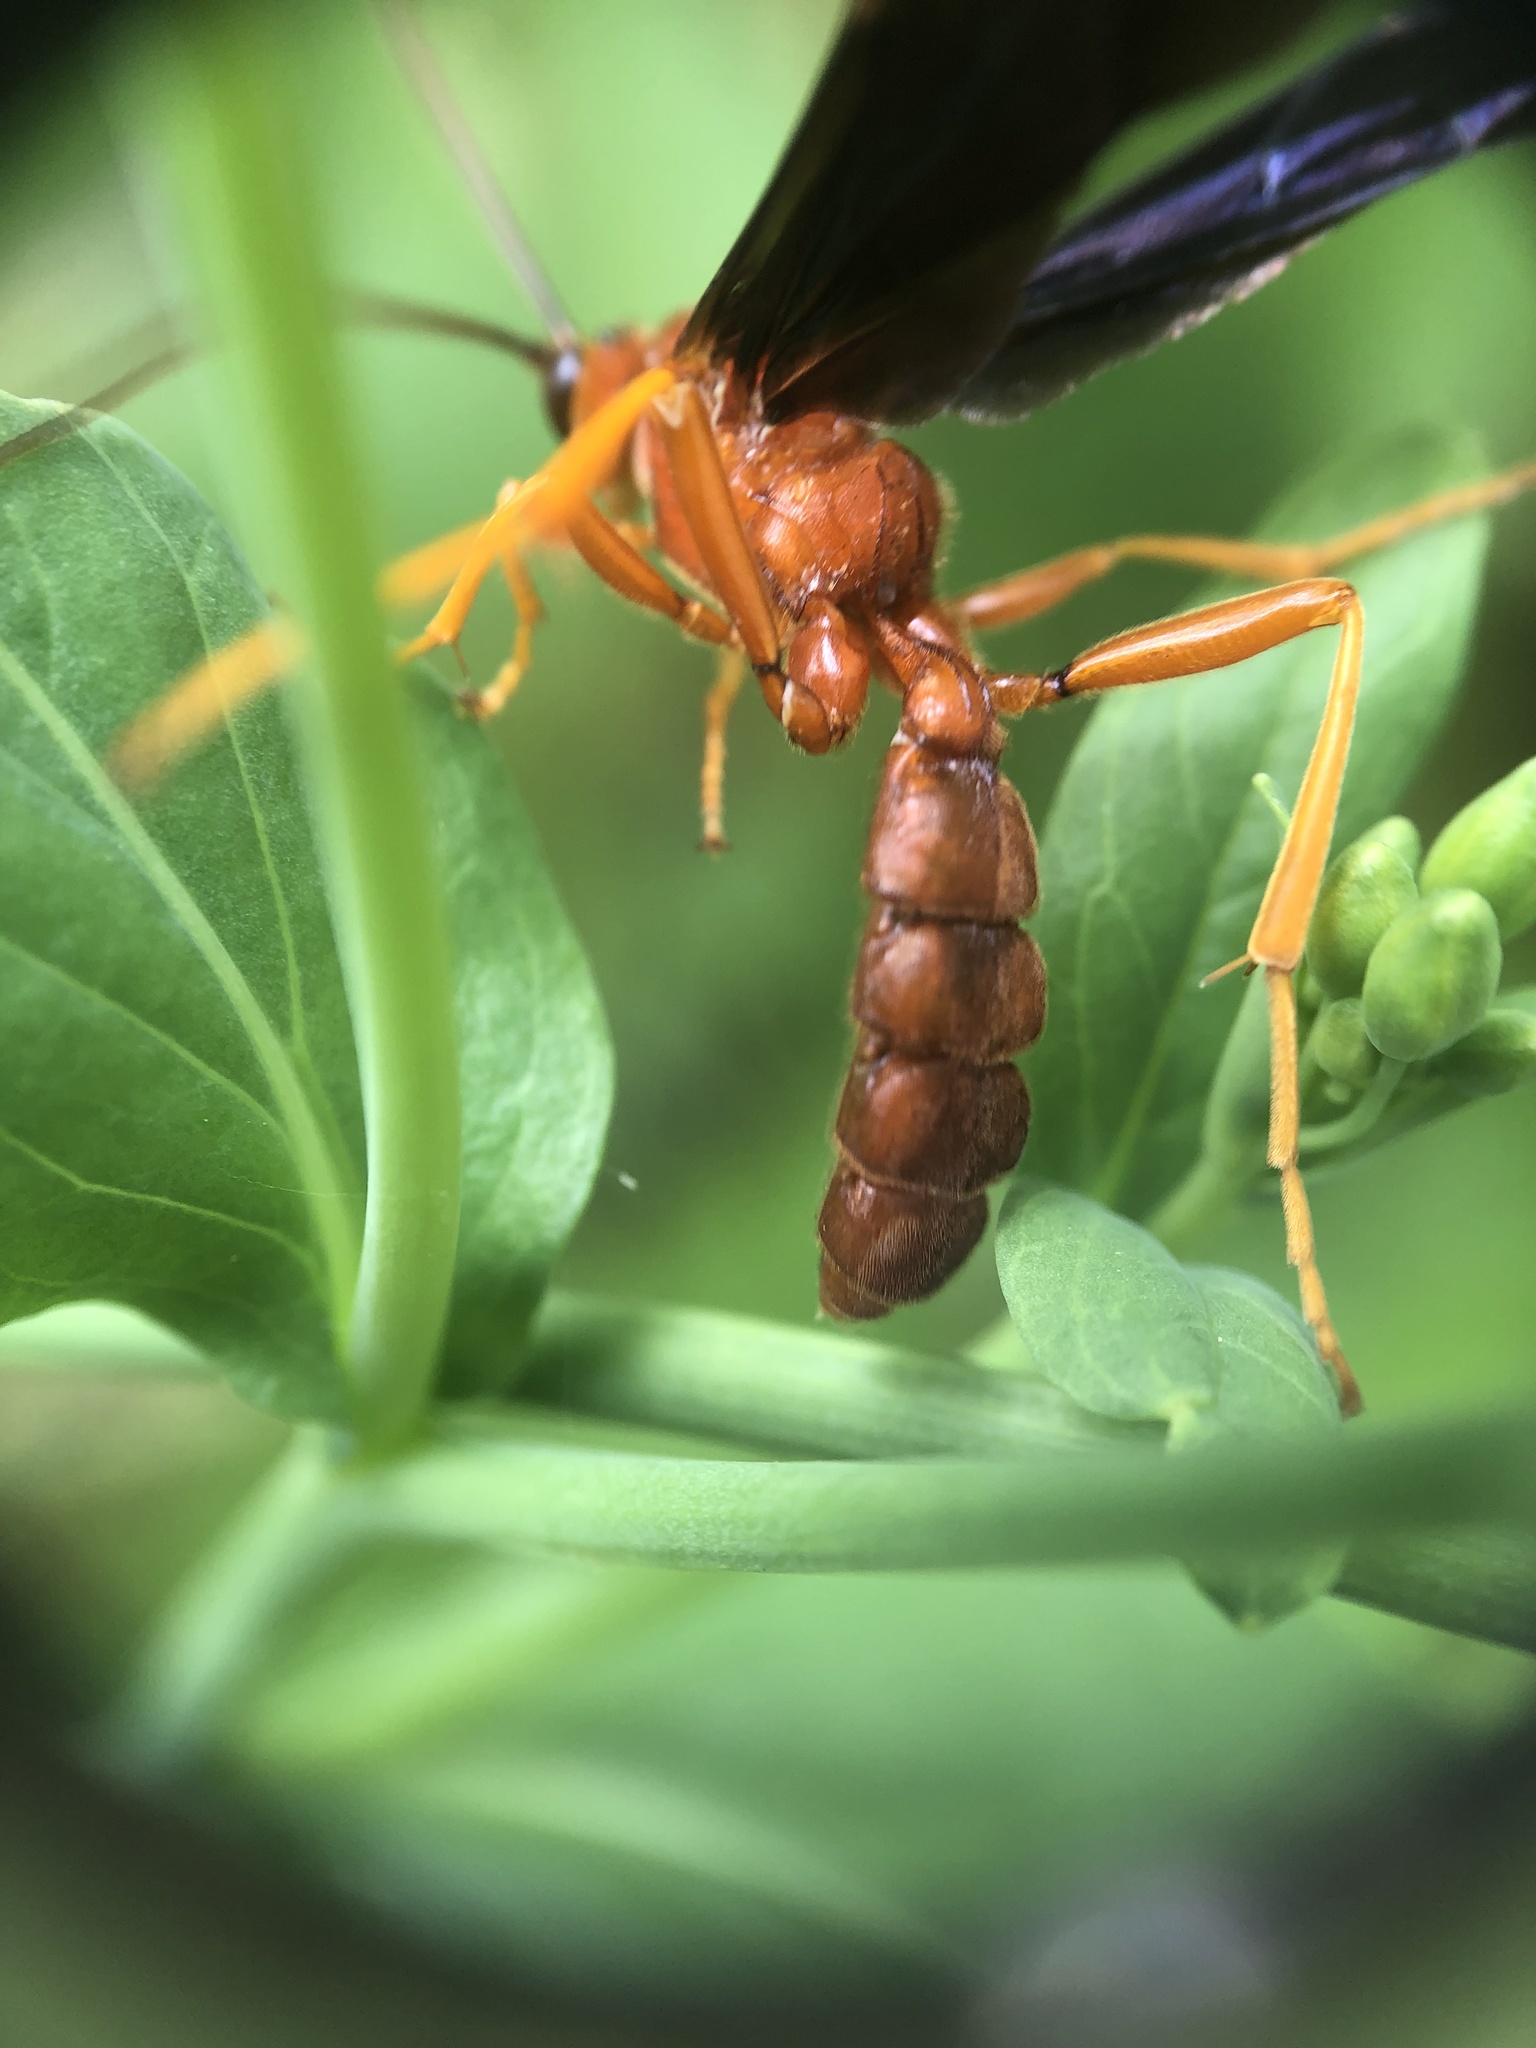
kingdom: Animalia
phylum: Arthropoda
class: Insecta
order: Hymenoptera
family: Ichneumonidae
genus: Trogus
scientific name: Trogus vulpinus
